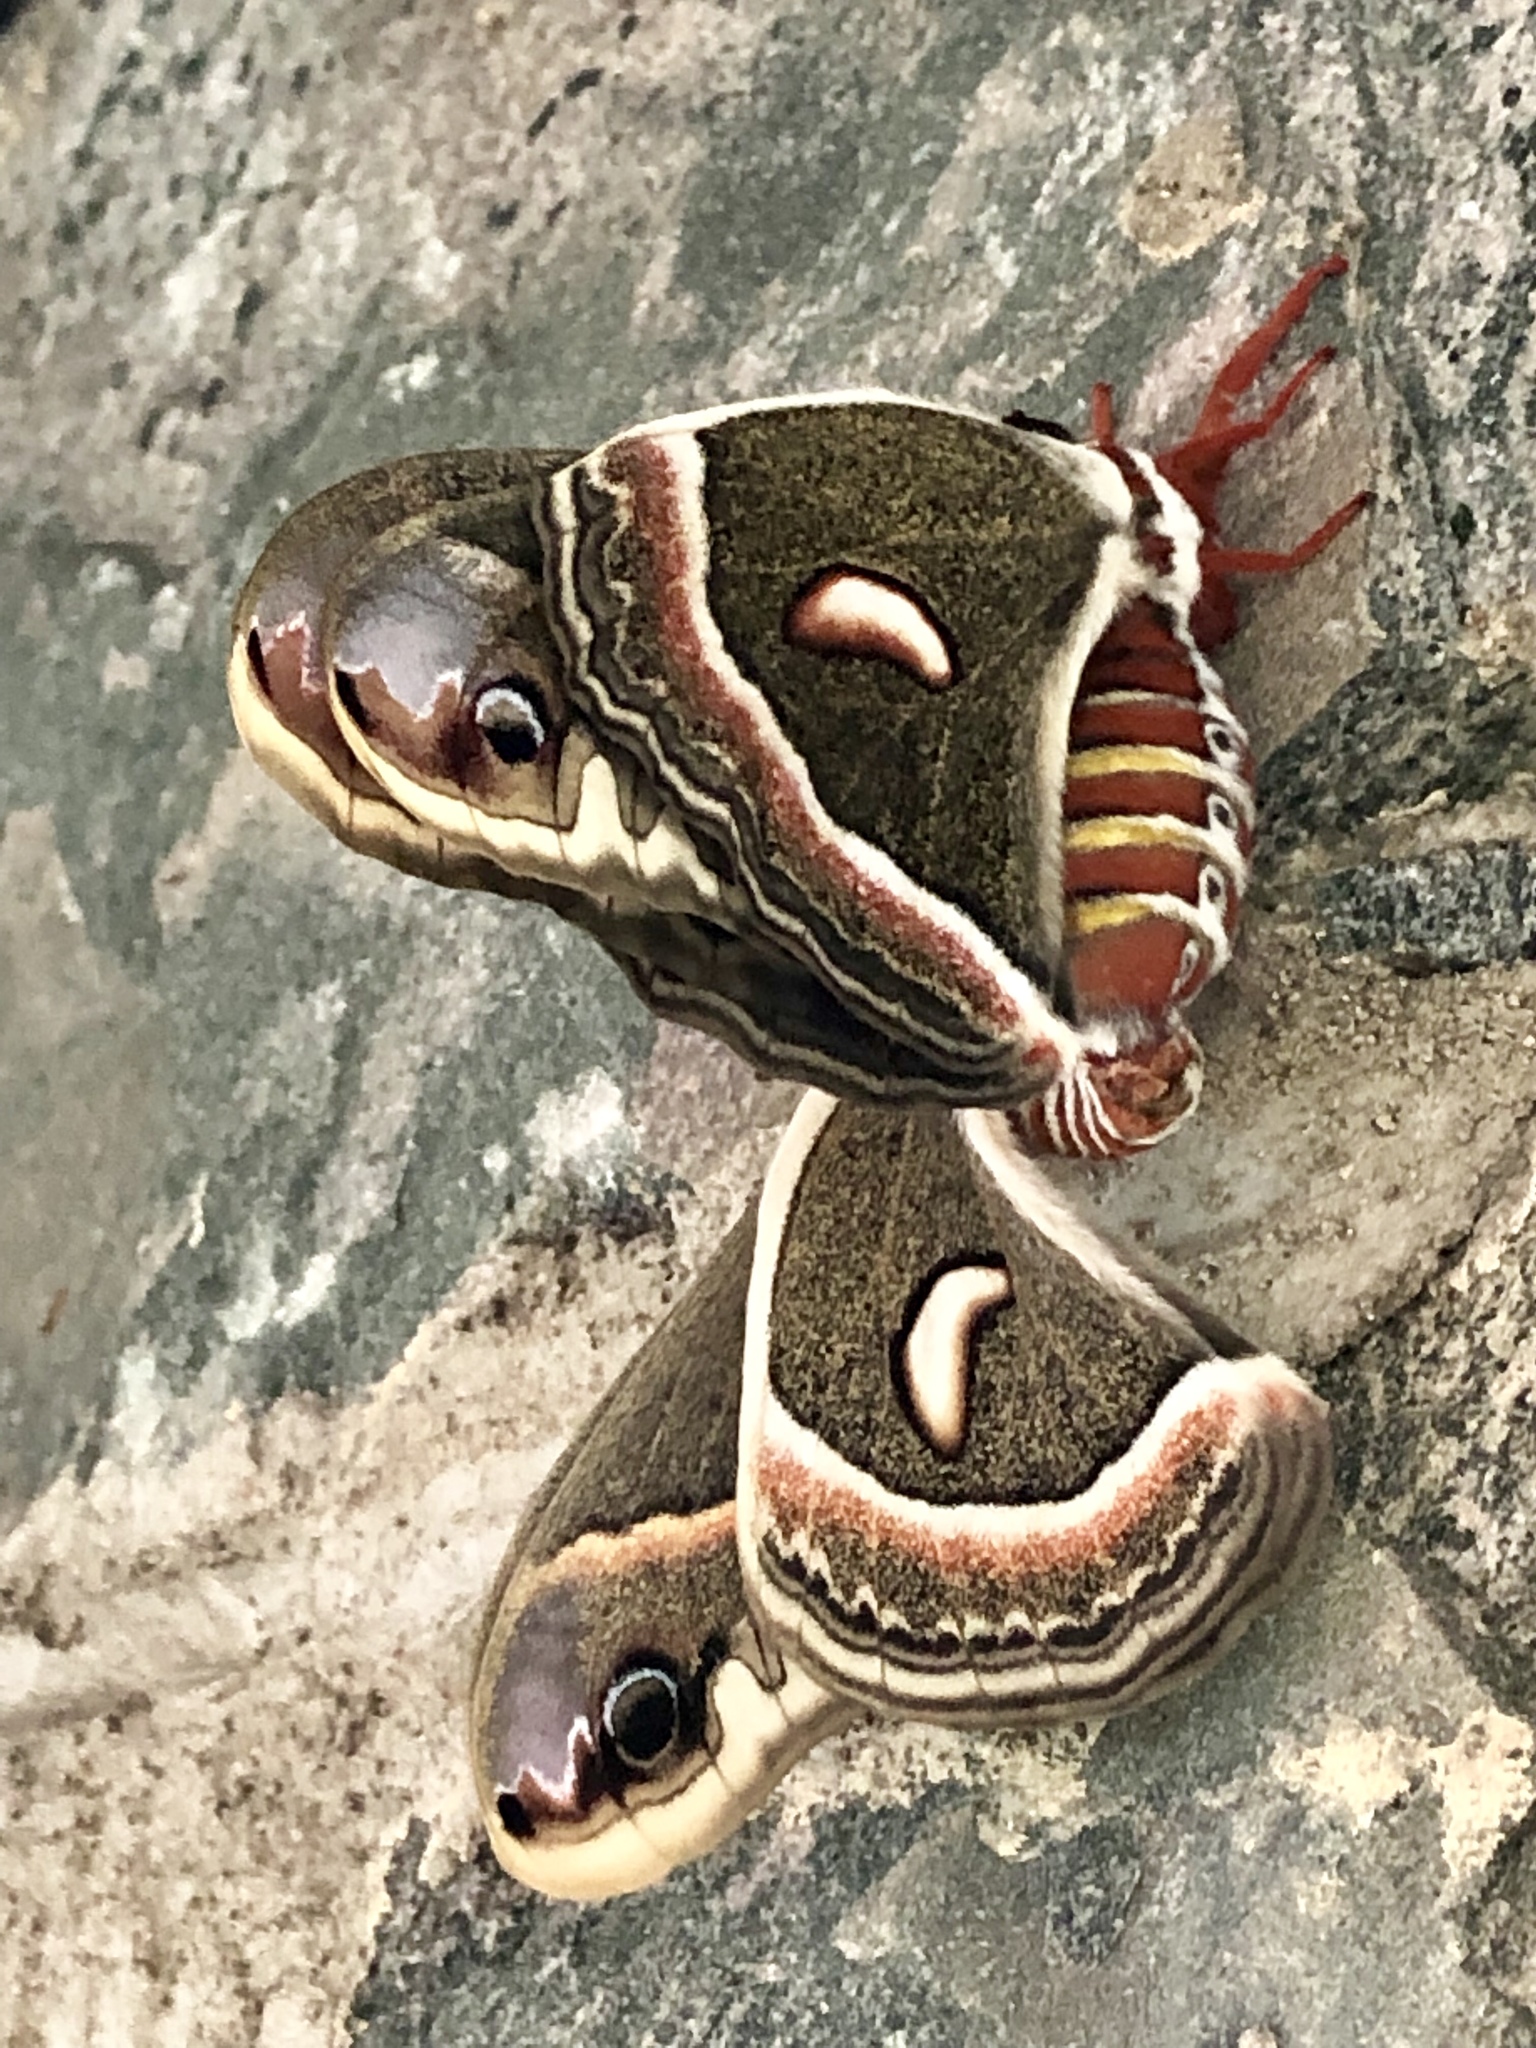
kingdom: Animalia
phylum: Arthropoda
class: Insecta
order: Lepidoptera
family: Saturniidae
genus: Hyalophora
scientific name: Hyalophora cecropia
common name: Cecropia silkmoth
